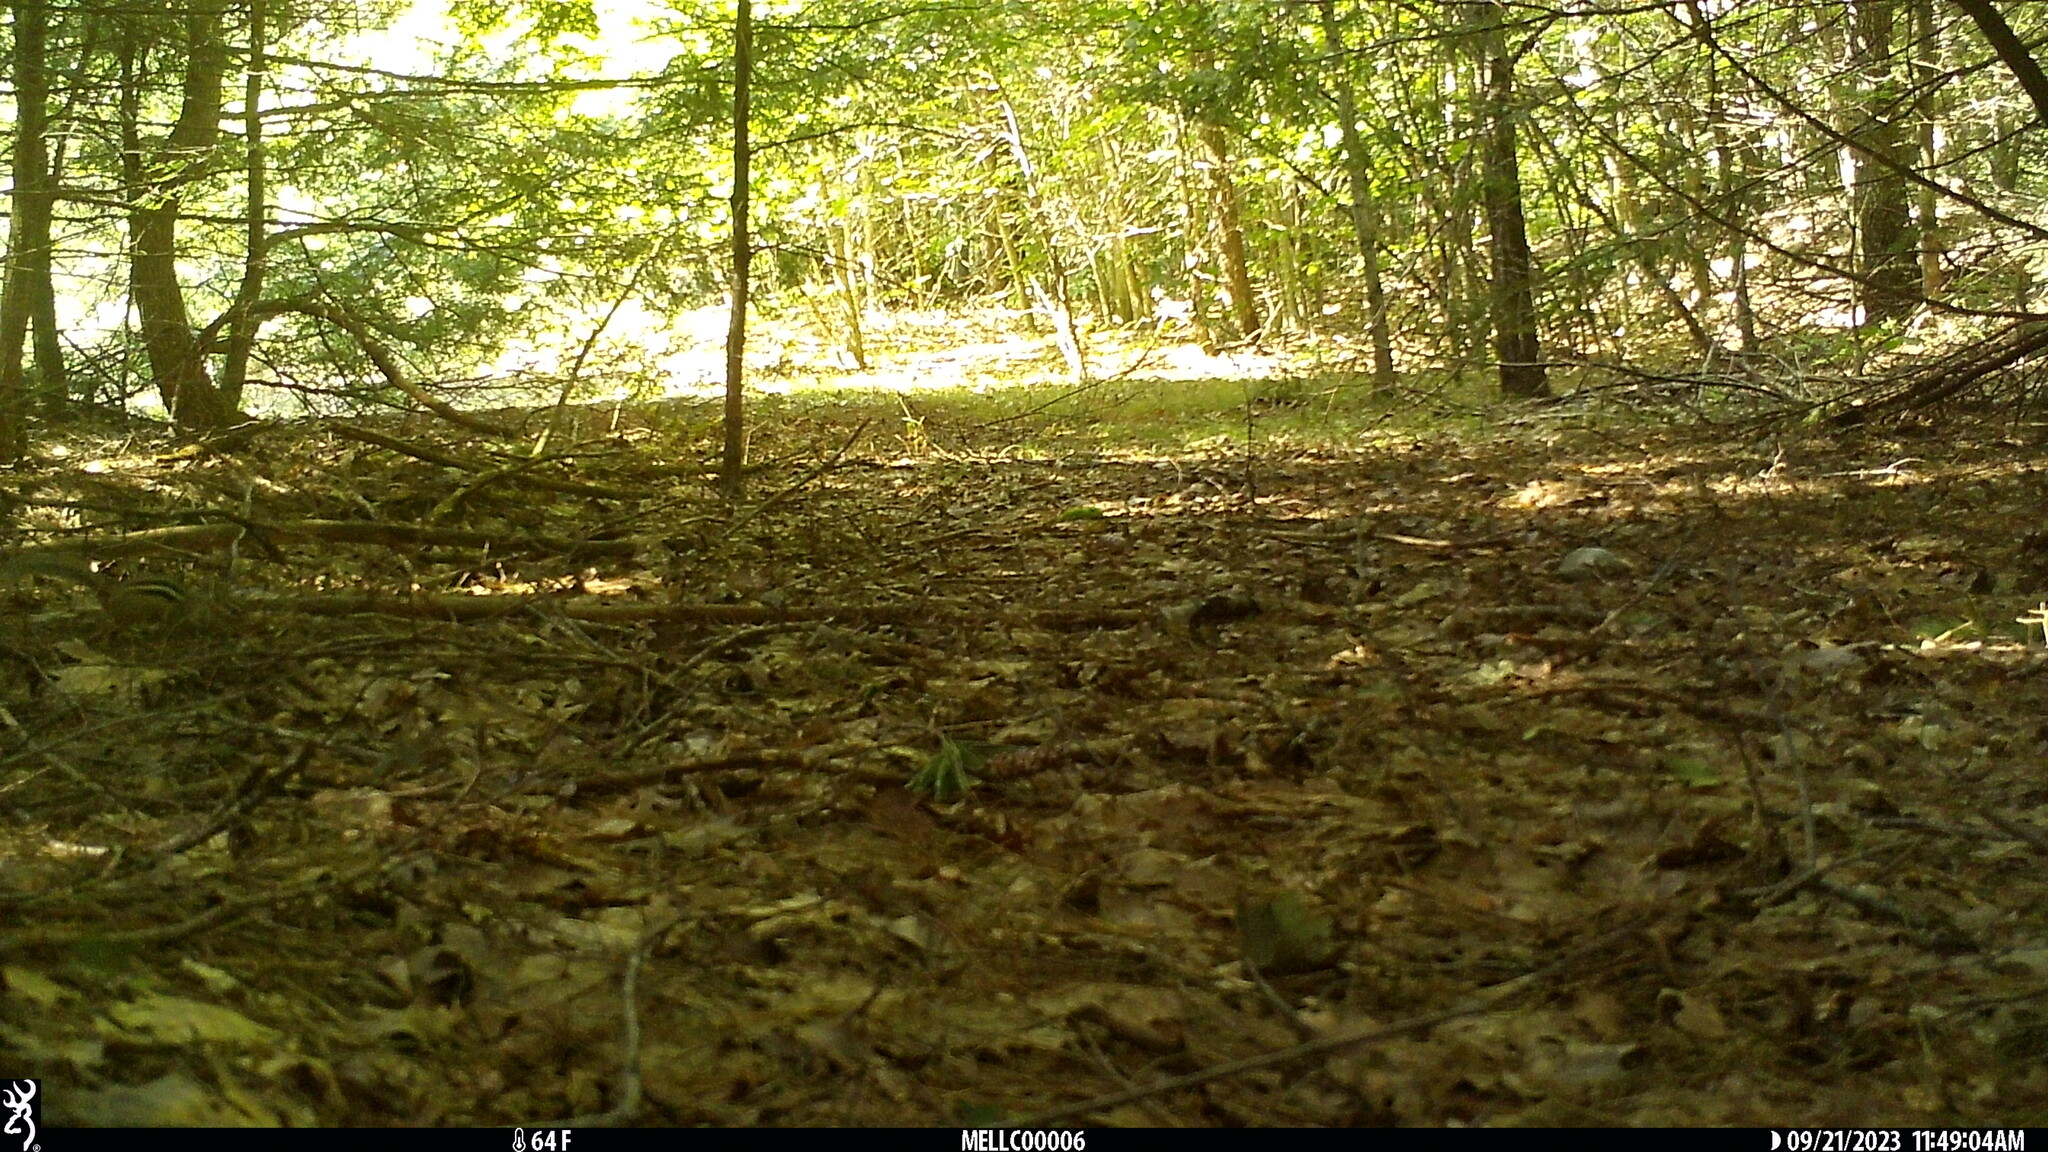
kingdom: Animalia
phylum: Chordata
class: Mammalia
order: Rodentia
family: Sciuridae
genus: Tamias
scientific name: Tamias striatus
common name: Eastern chipmunk
